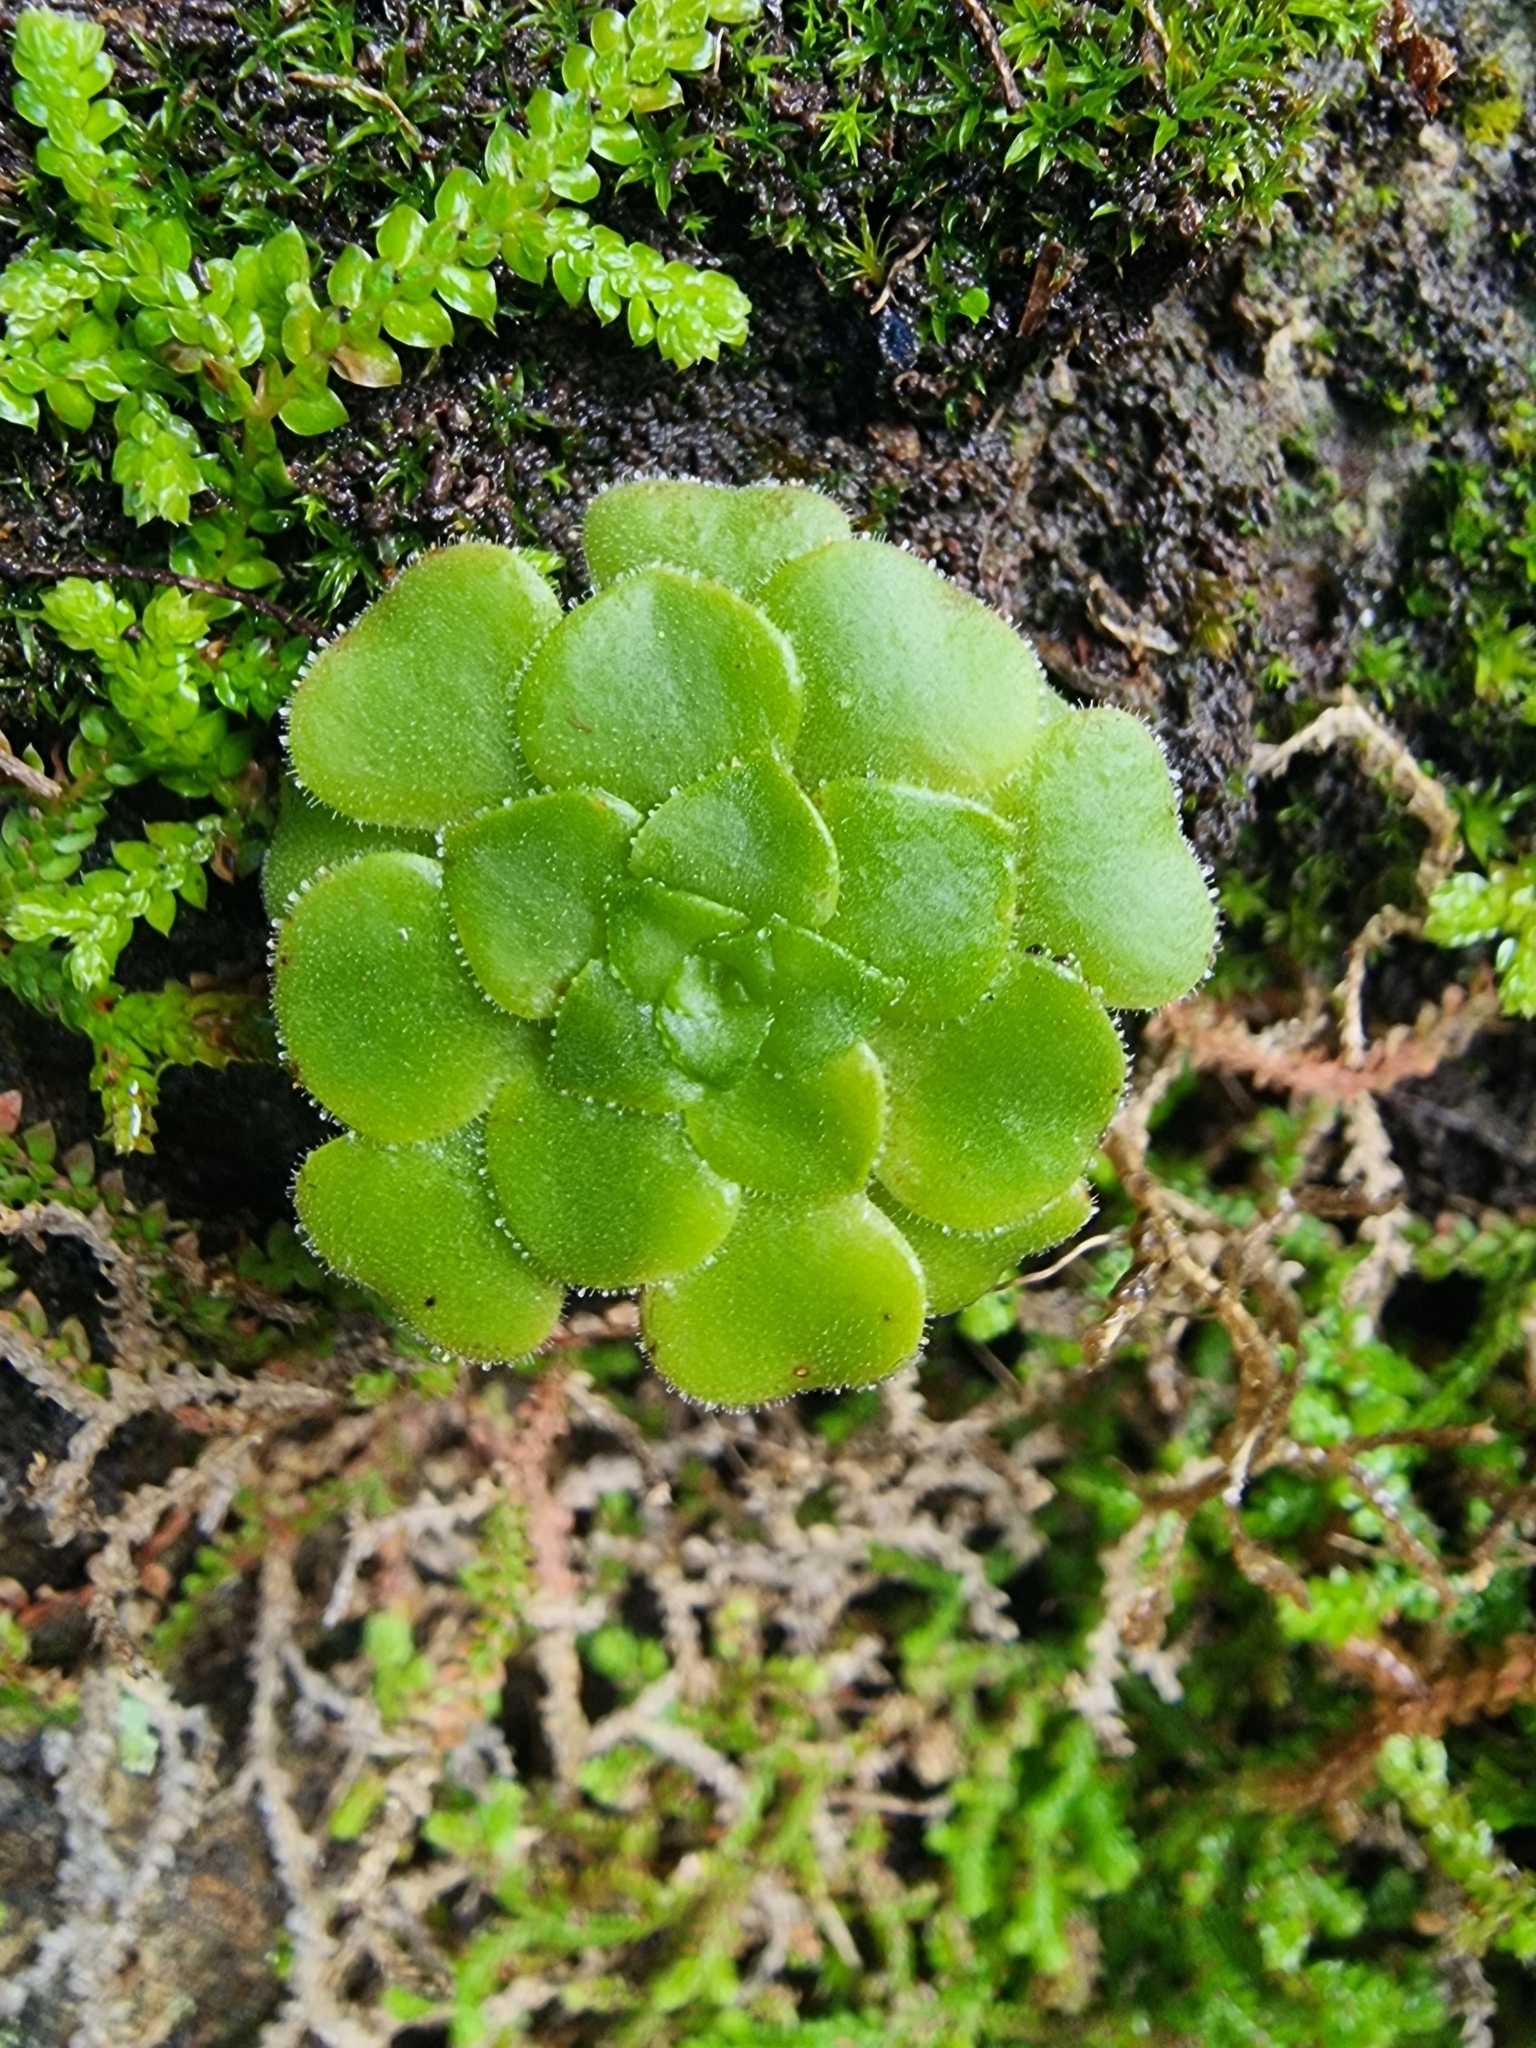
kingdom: Plantae
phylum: Tracheophyta
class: Magnoliopsida
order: Saxifragales
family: Crassulaceae
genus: Aeonium
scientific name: Aeonium glandulosum
